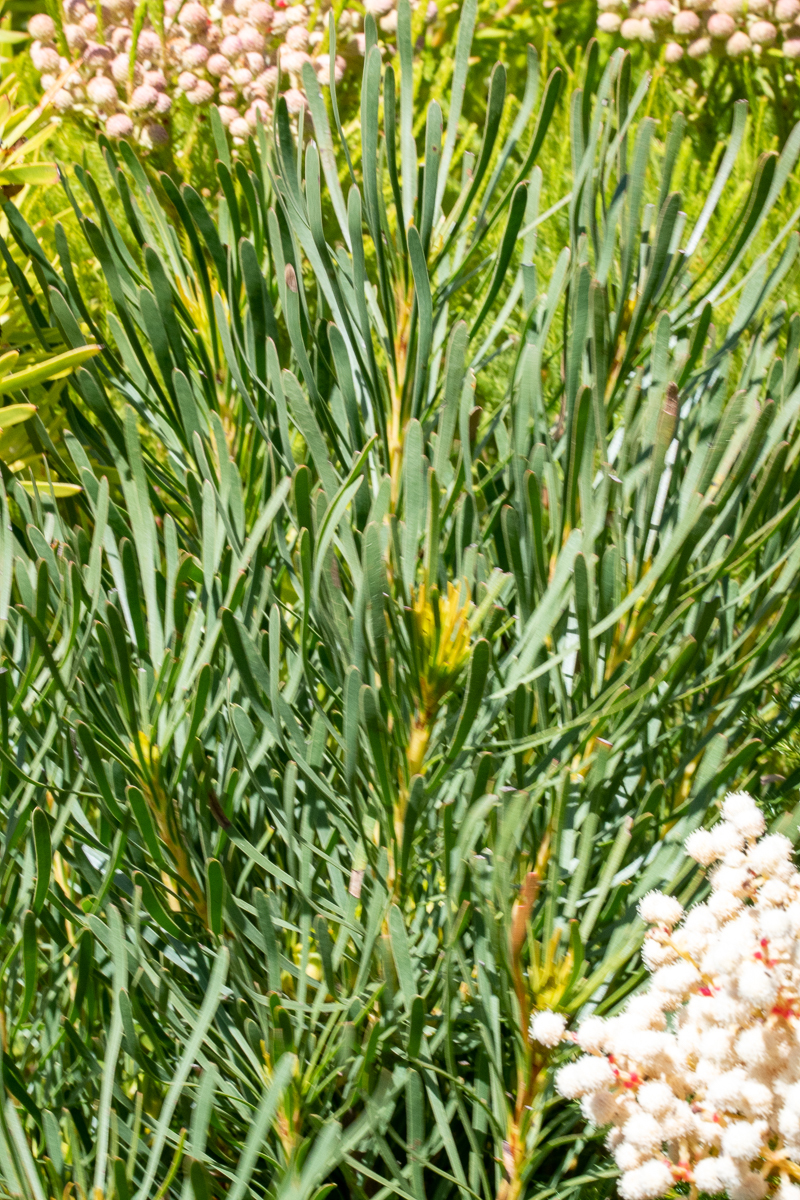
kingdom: Plantae
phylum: Tracheophyta
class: Magnoliopsida
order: Proteales
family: Proteaceae
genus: Aulax
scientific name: Aulax
